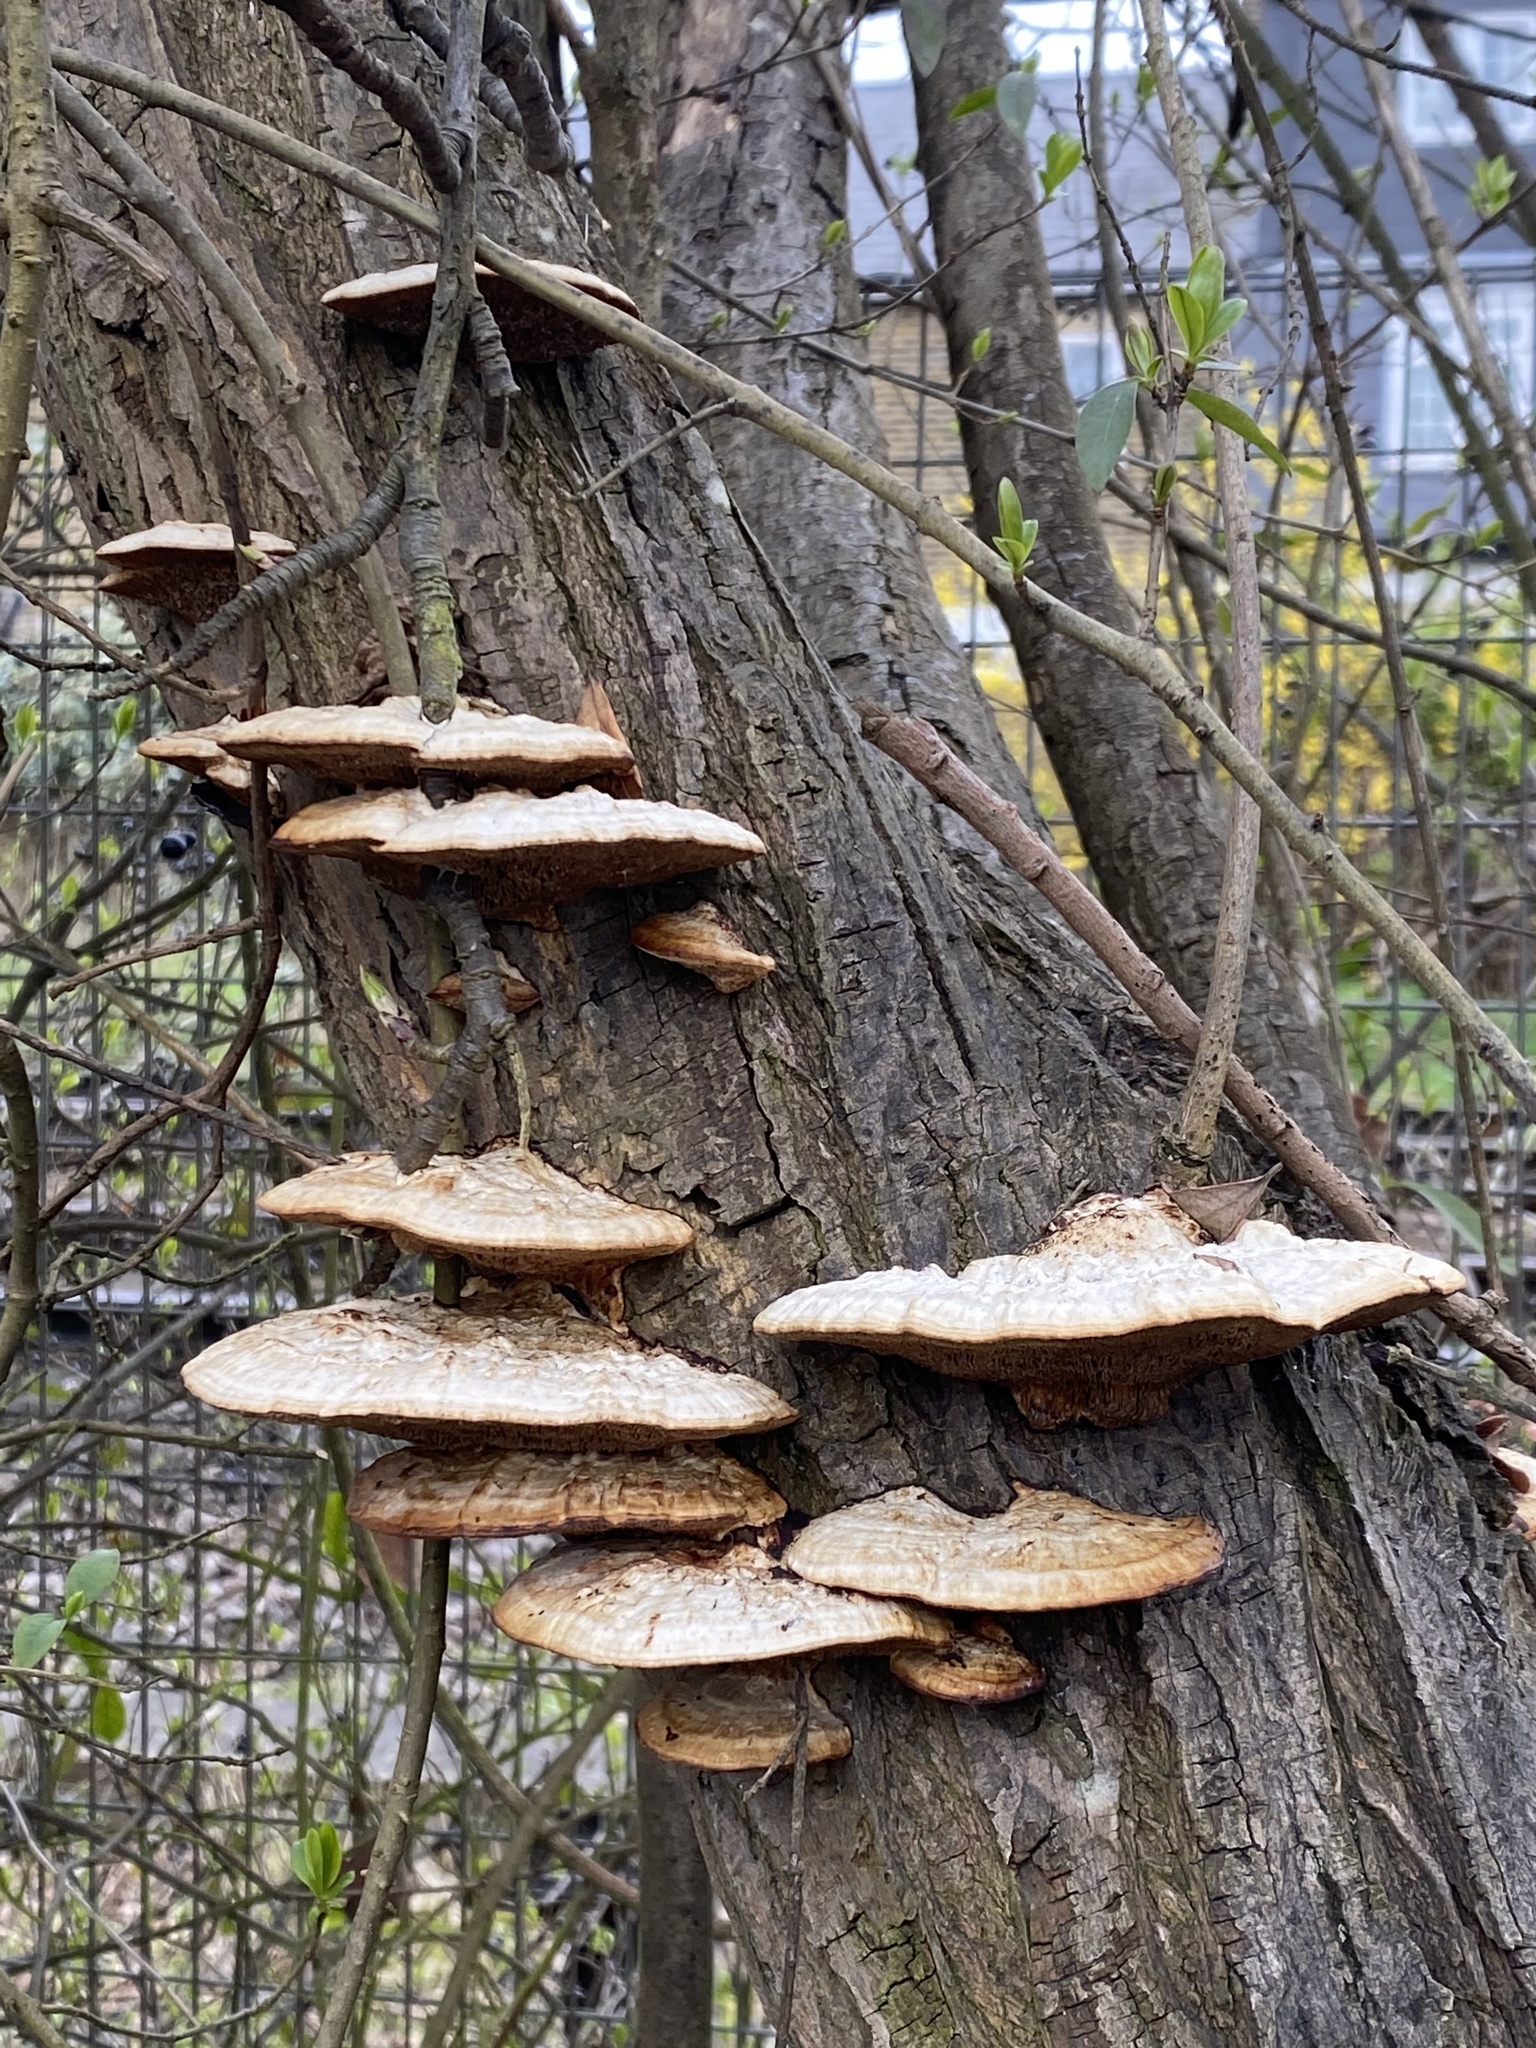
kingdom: Fungi
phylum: Basidiomycota
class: Agaricomycetes
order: Polyporales
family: Polyporaceae
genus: Daedaleopsis
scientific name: Daedaleopsis confragosa
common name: Blushing bracket
